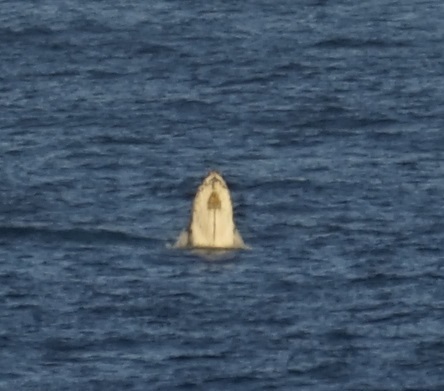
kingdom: Animalia
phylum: Chordata
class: Mammalia
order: Cetacea
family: Balaenopteridae
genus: Megaptera
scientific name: Megaptera novaeangliae
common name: Humpback whale
